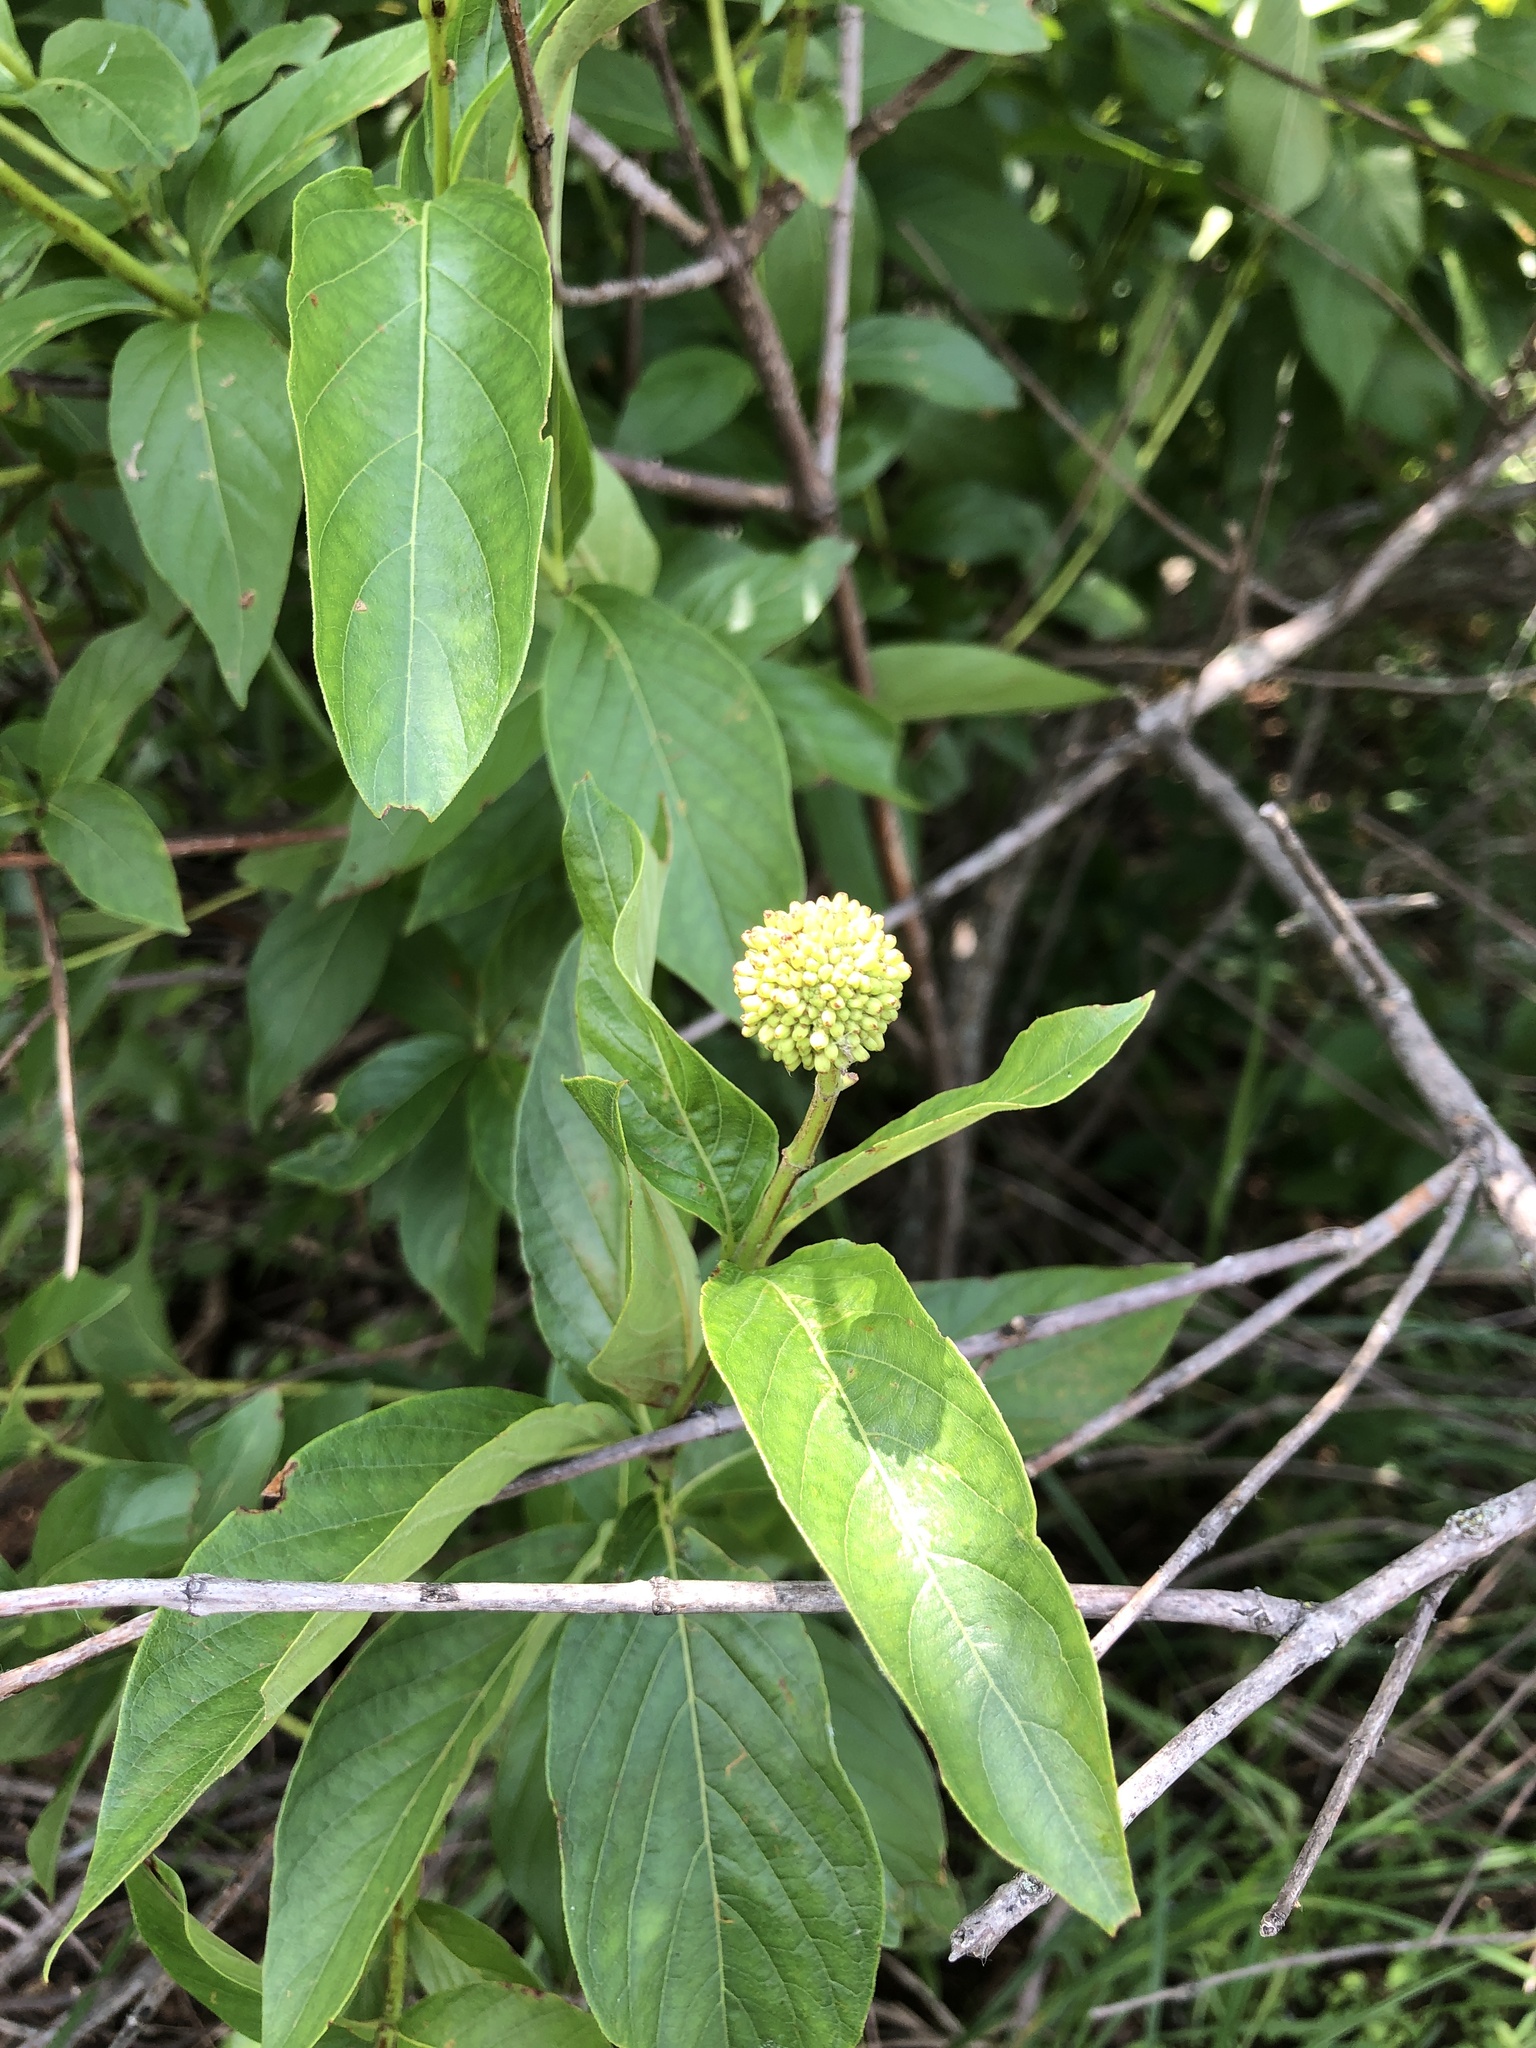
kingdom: Plantae
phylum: Tracheophyta
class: Magnoliopsida
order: Gentianales
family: Rubiaceae
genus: Cephalanthus
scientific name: Cephalanthus occidentalis
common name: Button-willow
